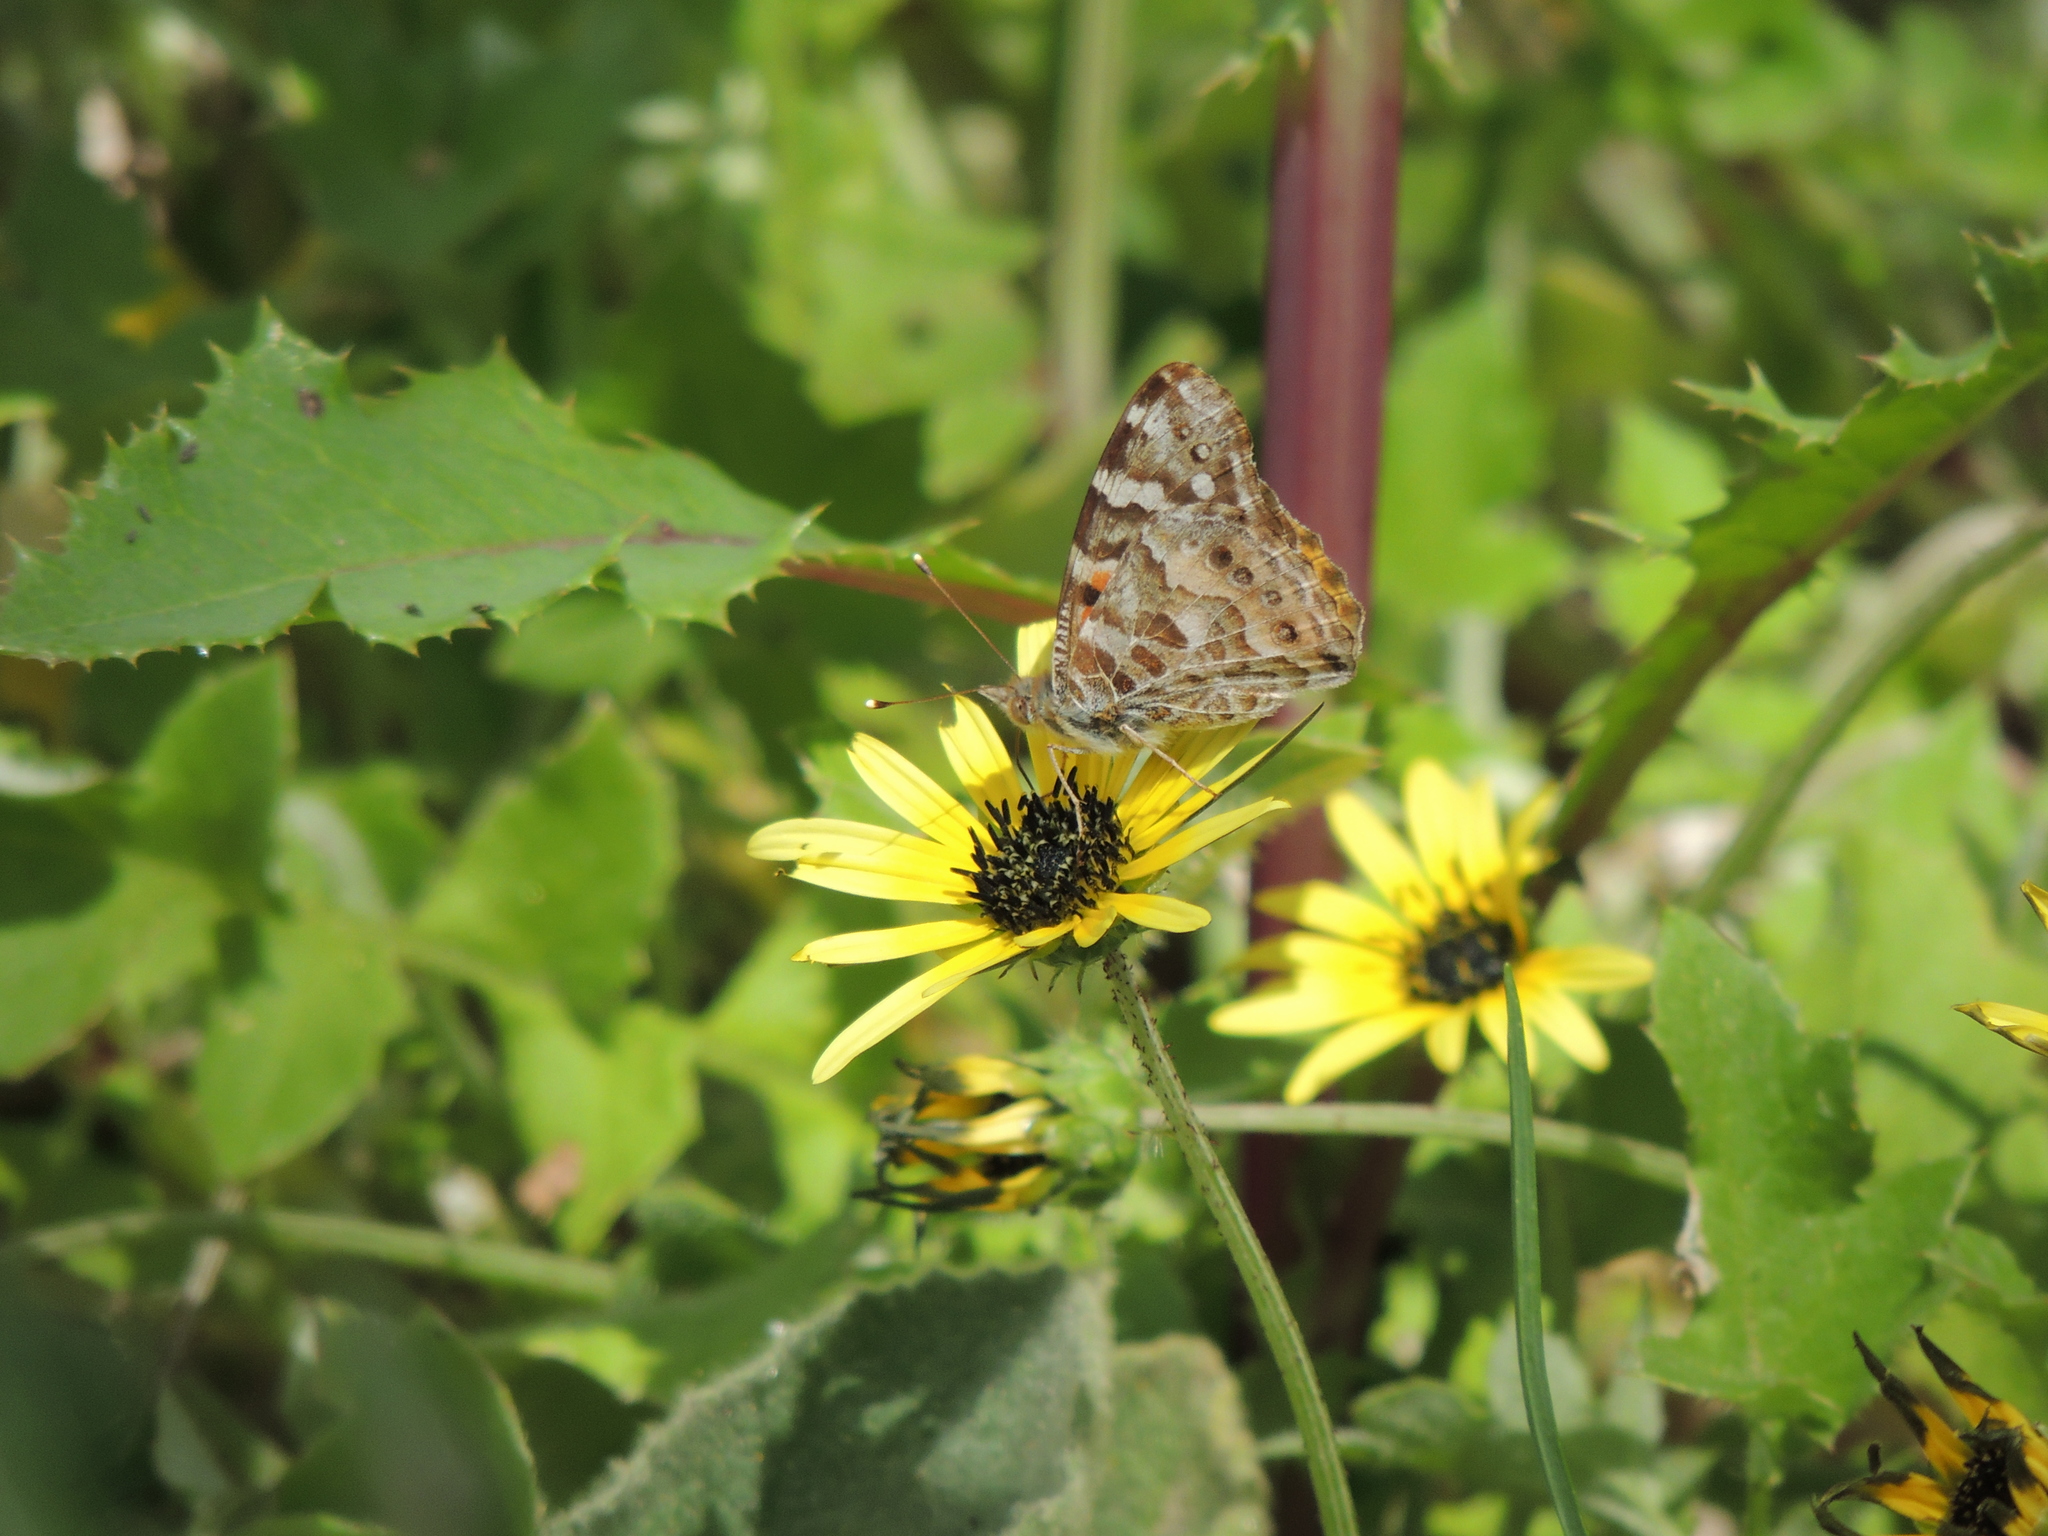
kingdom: Animalia
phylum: Arthropoda
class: Insecta
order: Lepidoptera
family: Nymphalidae
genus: Vanessa
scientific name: Vanessa kershawi
